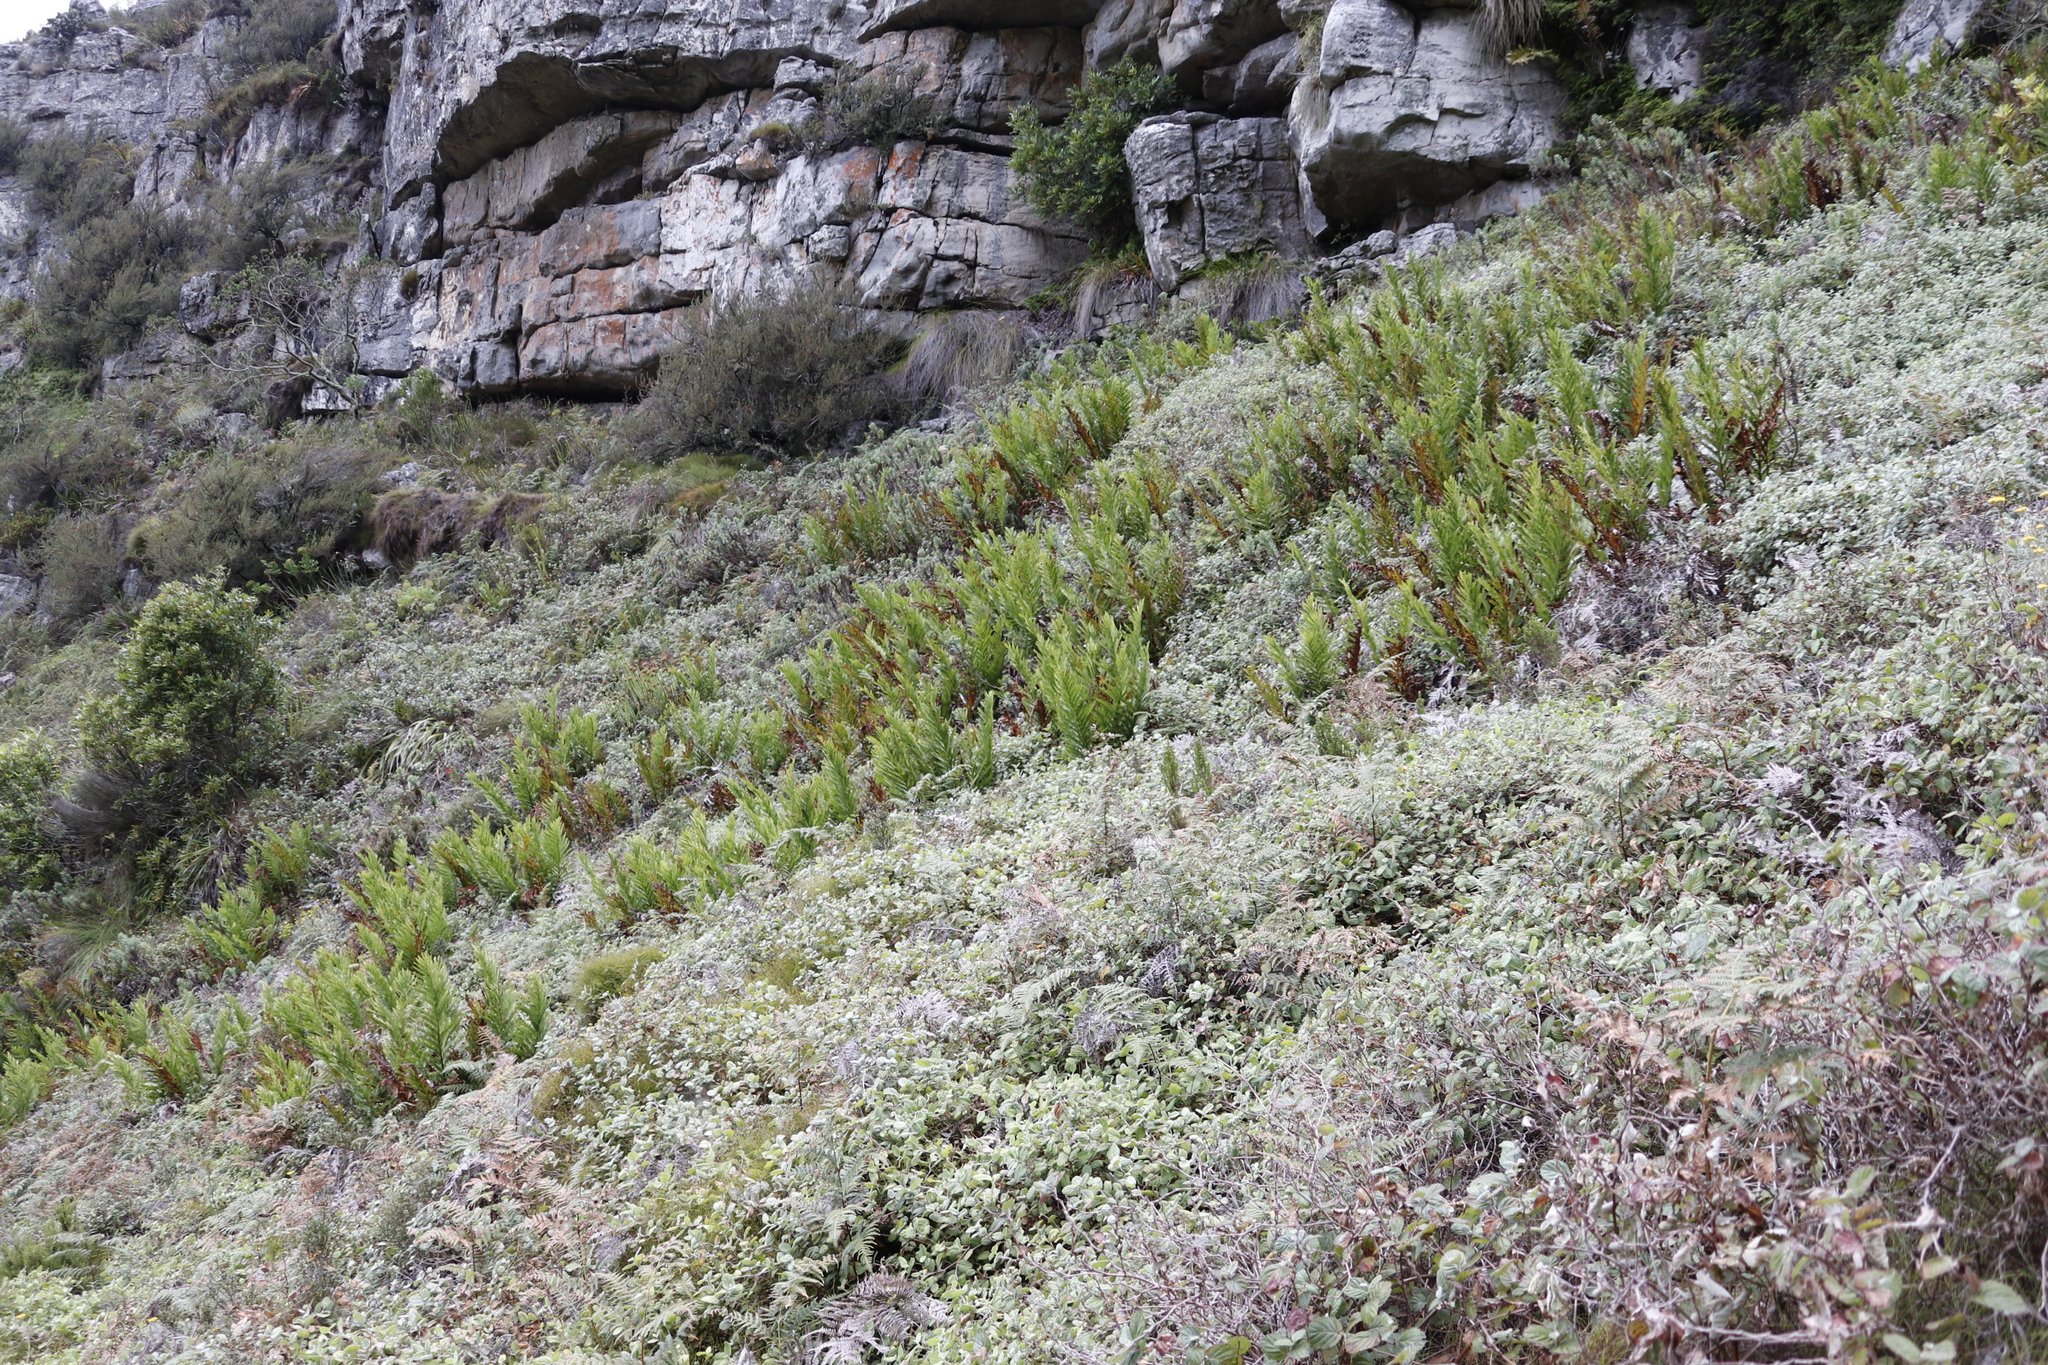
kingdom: Plantae
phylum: Tracheophyta
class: Magnoliopsida
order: Rosales
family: Rosaceae
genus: Cliffortia
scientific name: Cliffortia odorata
